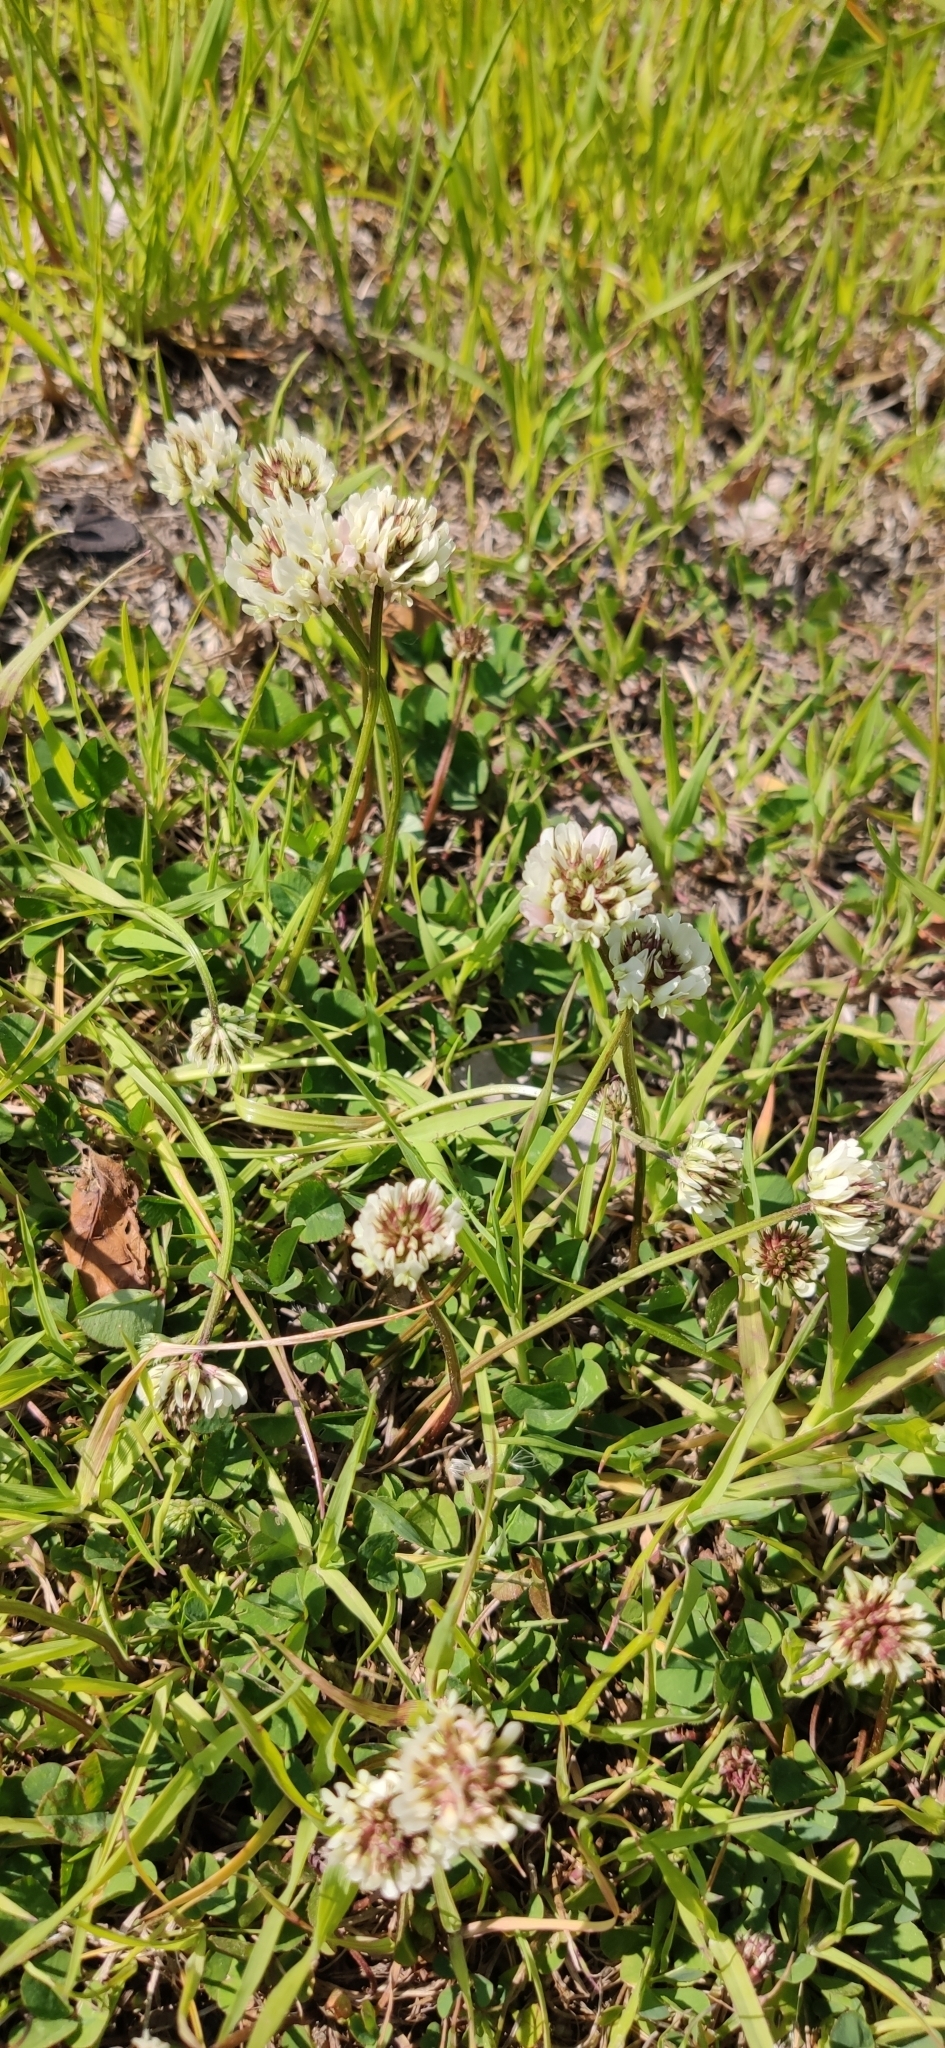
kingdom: Plantae
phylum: Tracheophyta
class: Magnoliopsida
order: Fabales
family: Fabaceae
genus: Trifolium
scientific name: Trifolium repens
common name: White clover
